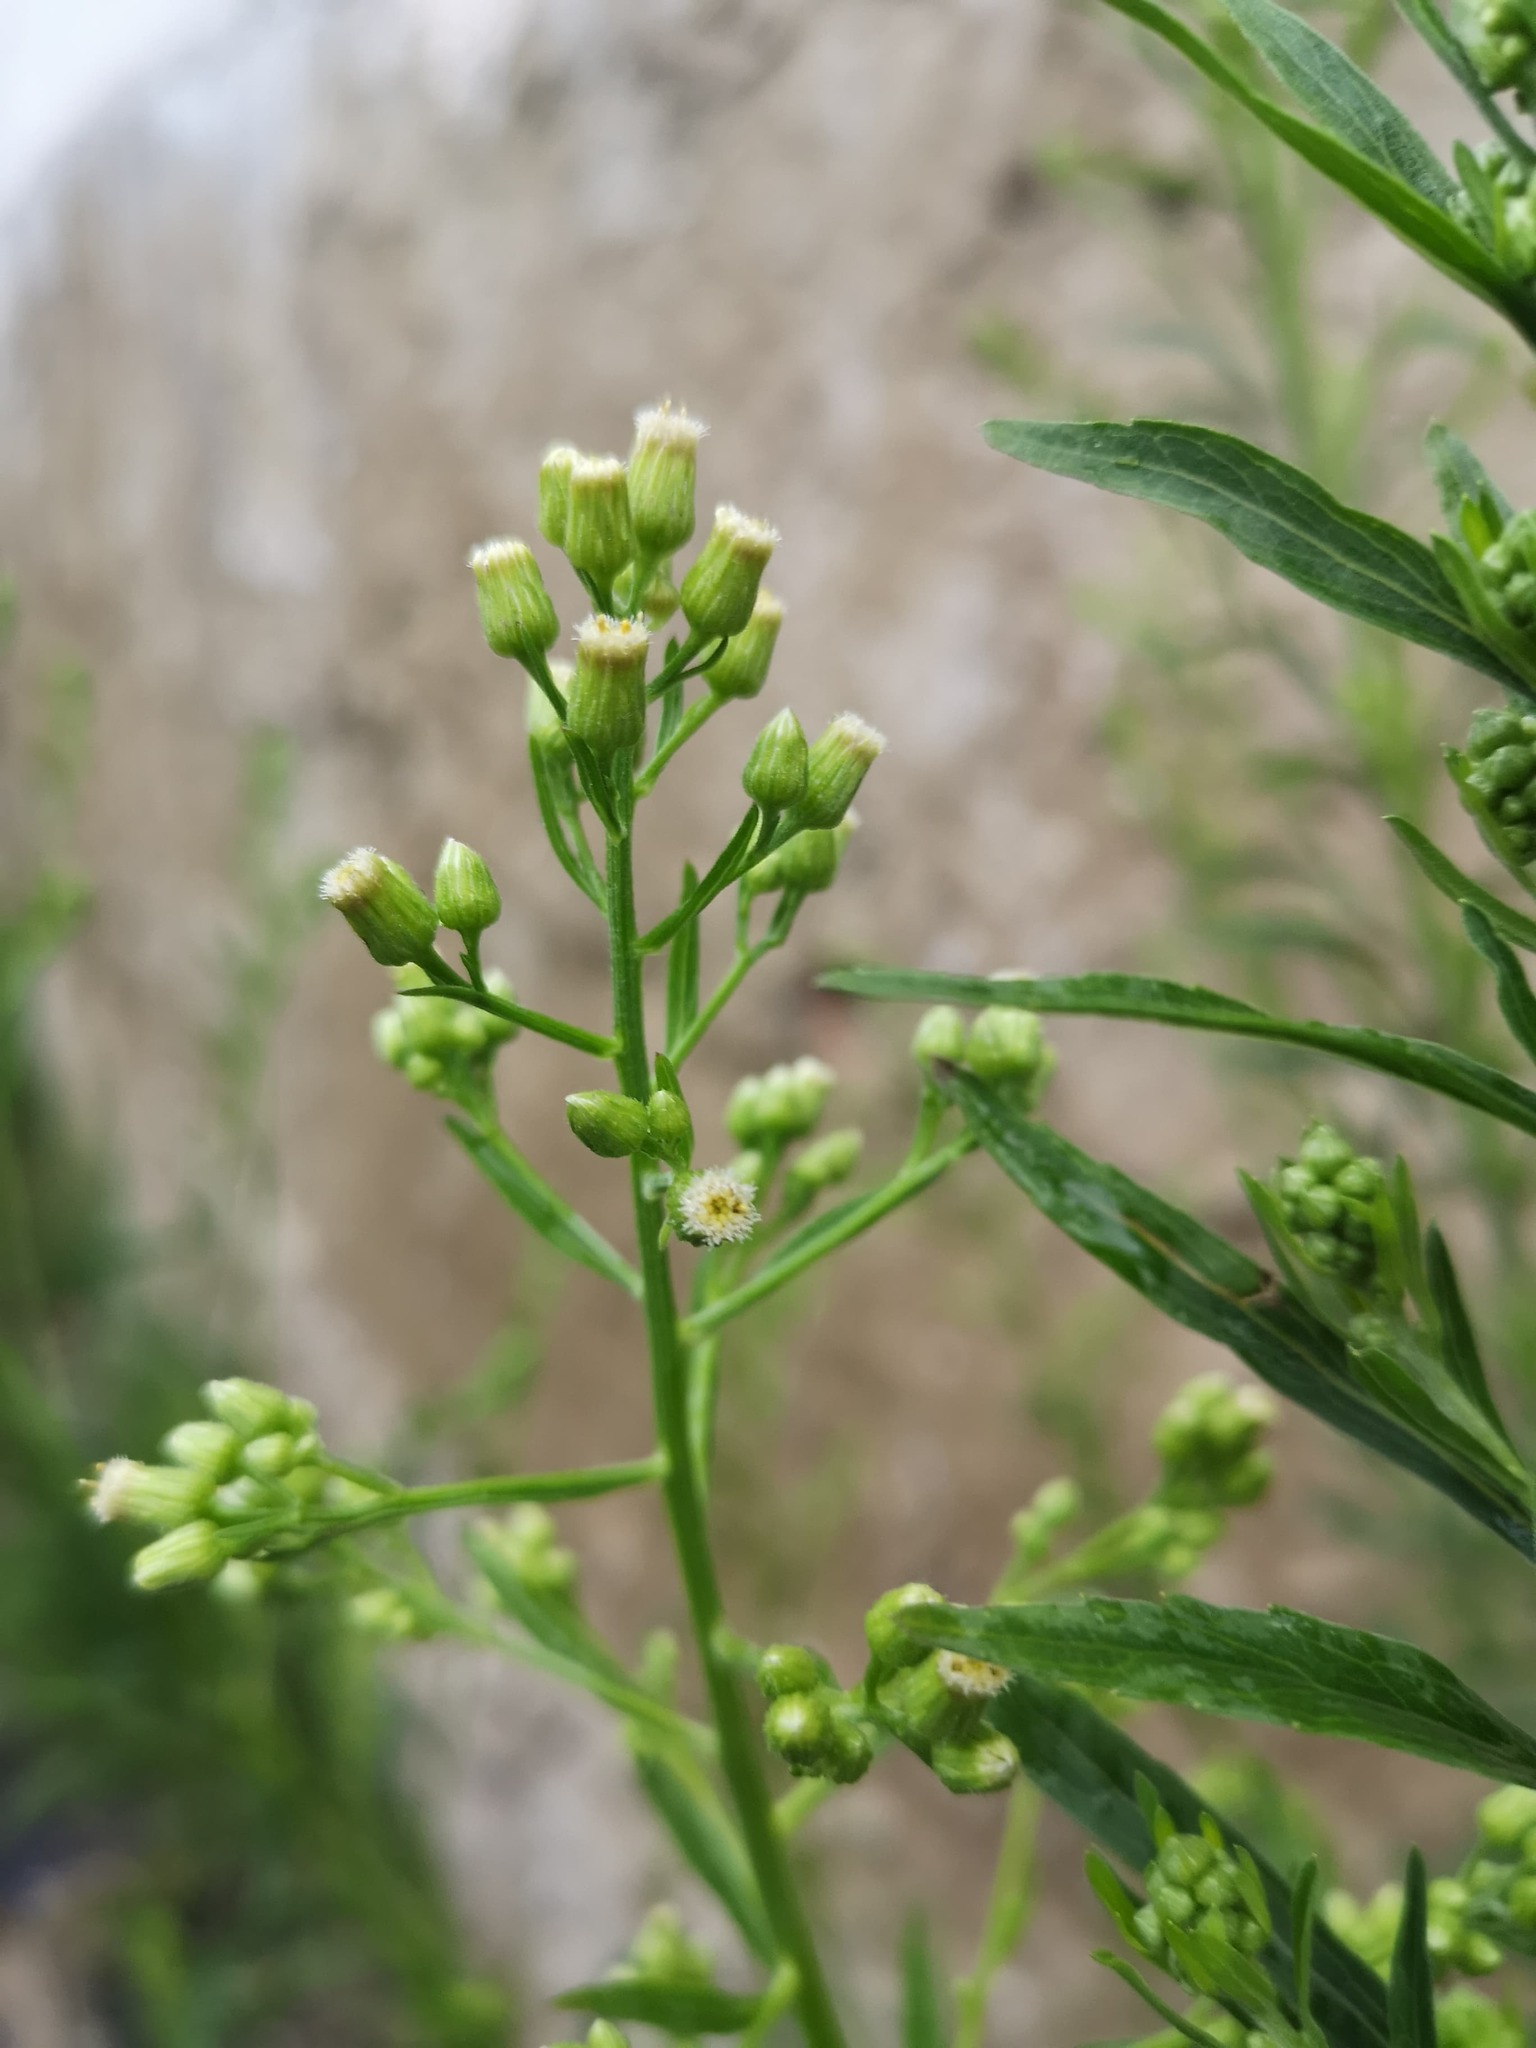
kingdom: Plantae
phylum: Tracheophyta
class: Magnoliopsida
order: Asterales
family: Asteraceae
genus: Erigeron
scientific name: Erigeron canadensis
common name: Canadian fleabane
